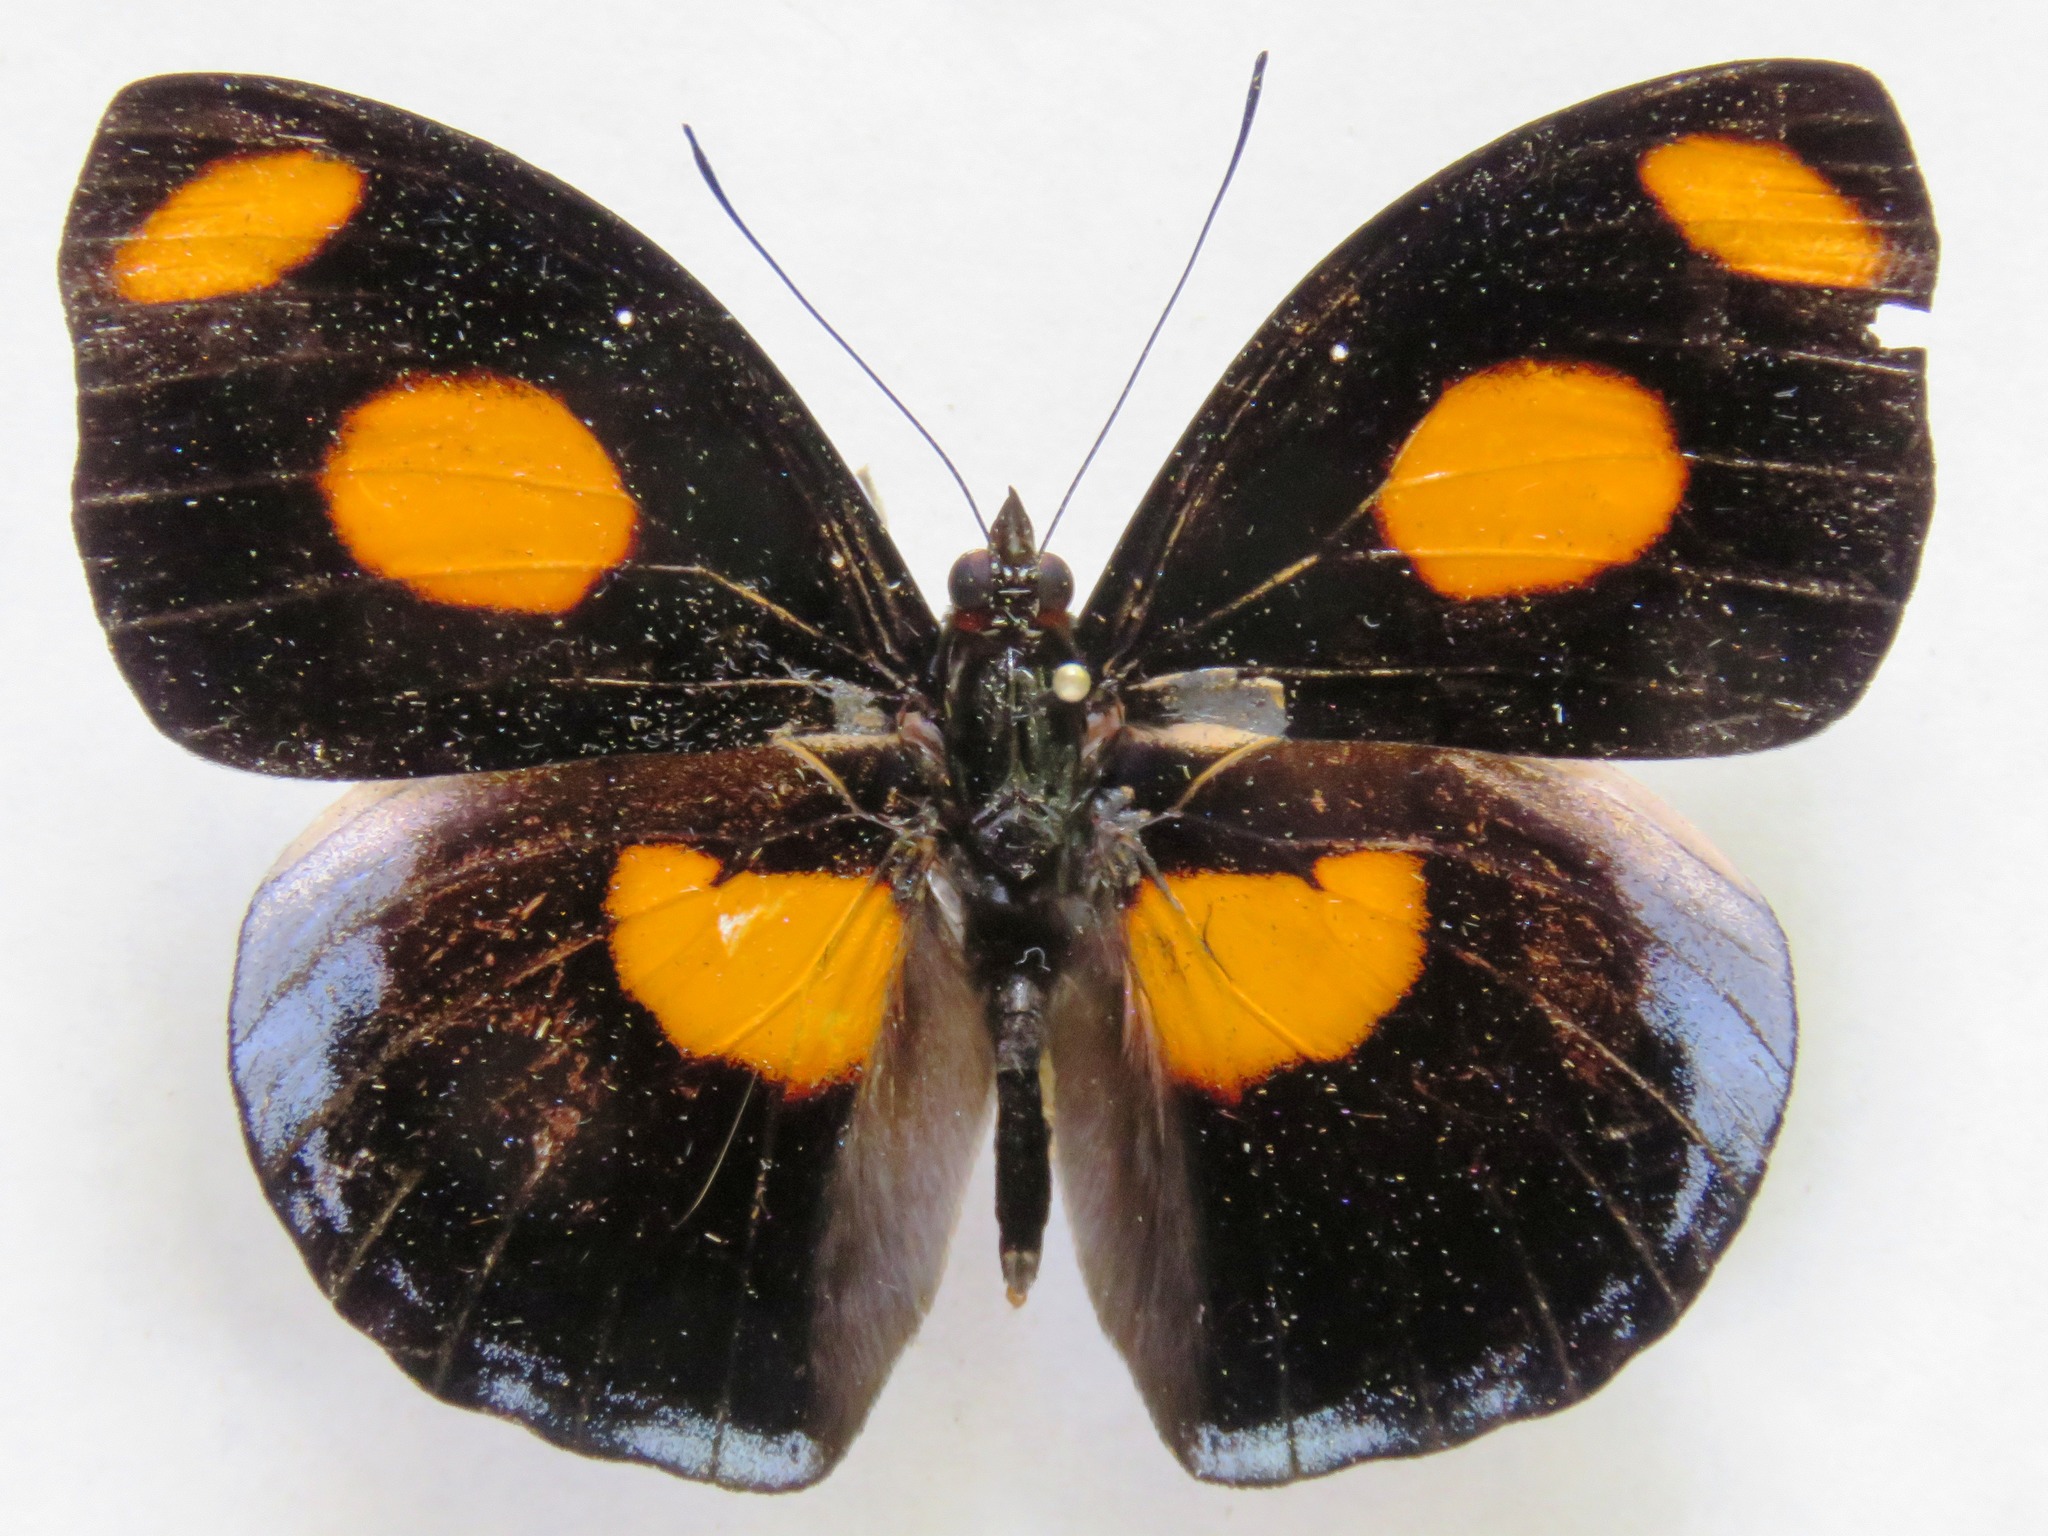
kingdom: Animalia
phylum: Arthropoda
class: Insecta
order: Lepidoptera
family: Nymphalidae
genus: Catonephele
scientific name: Catonephele numilia
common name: Blue-frosted banner
